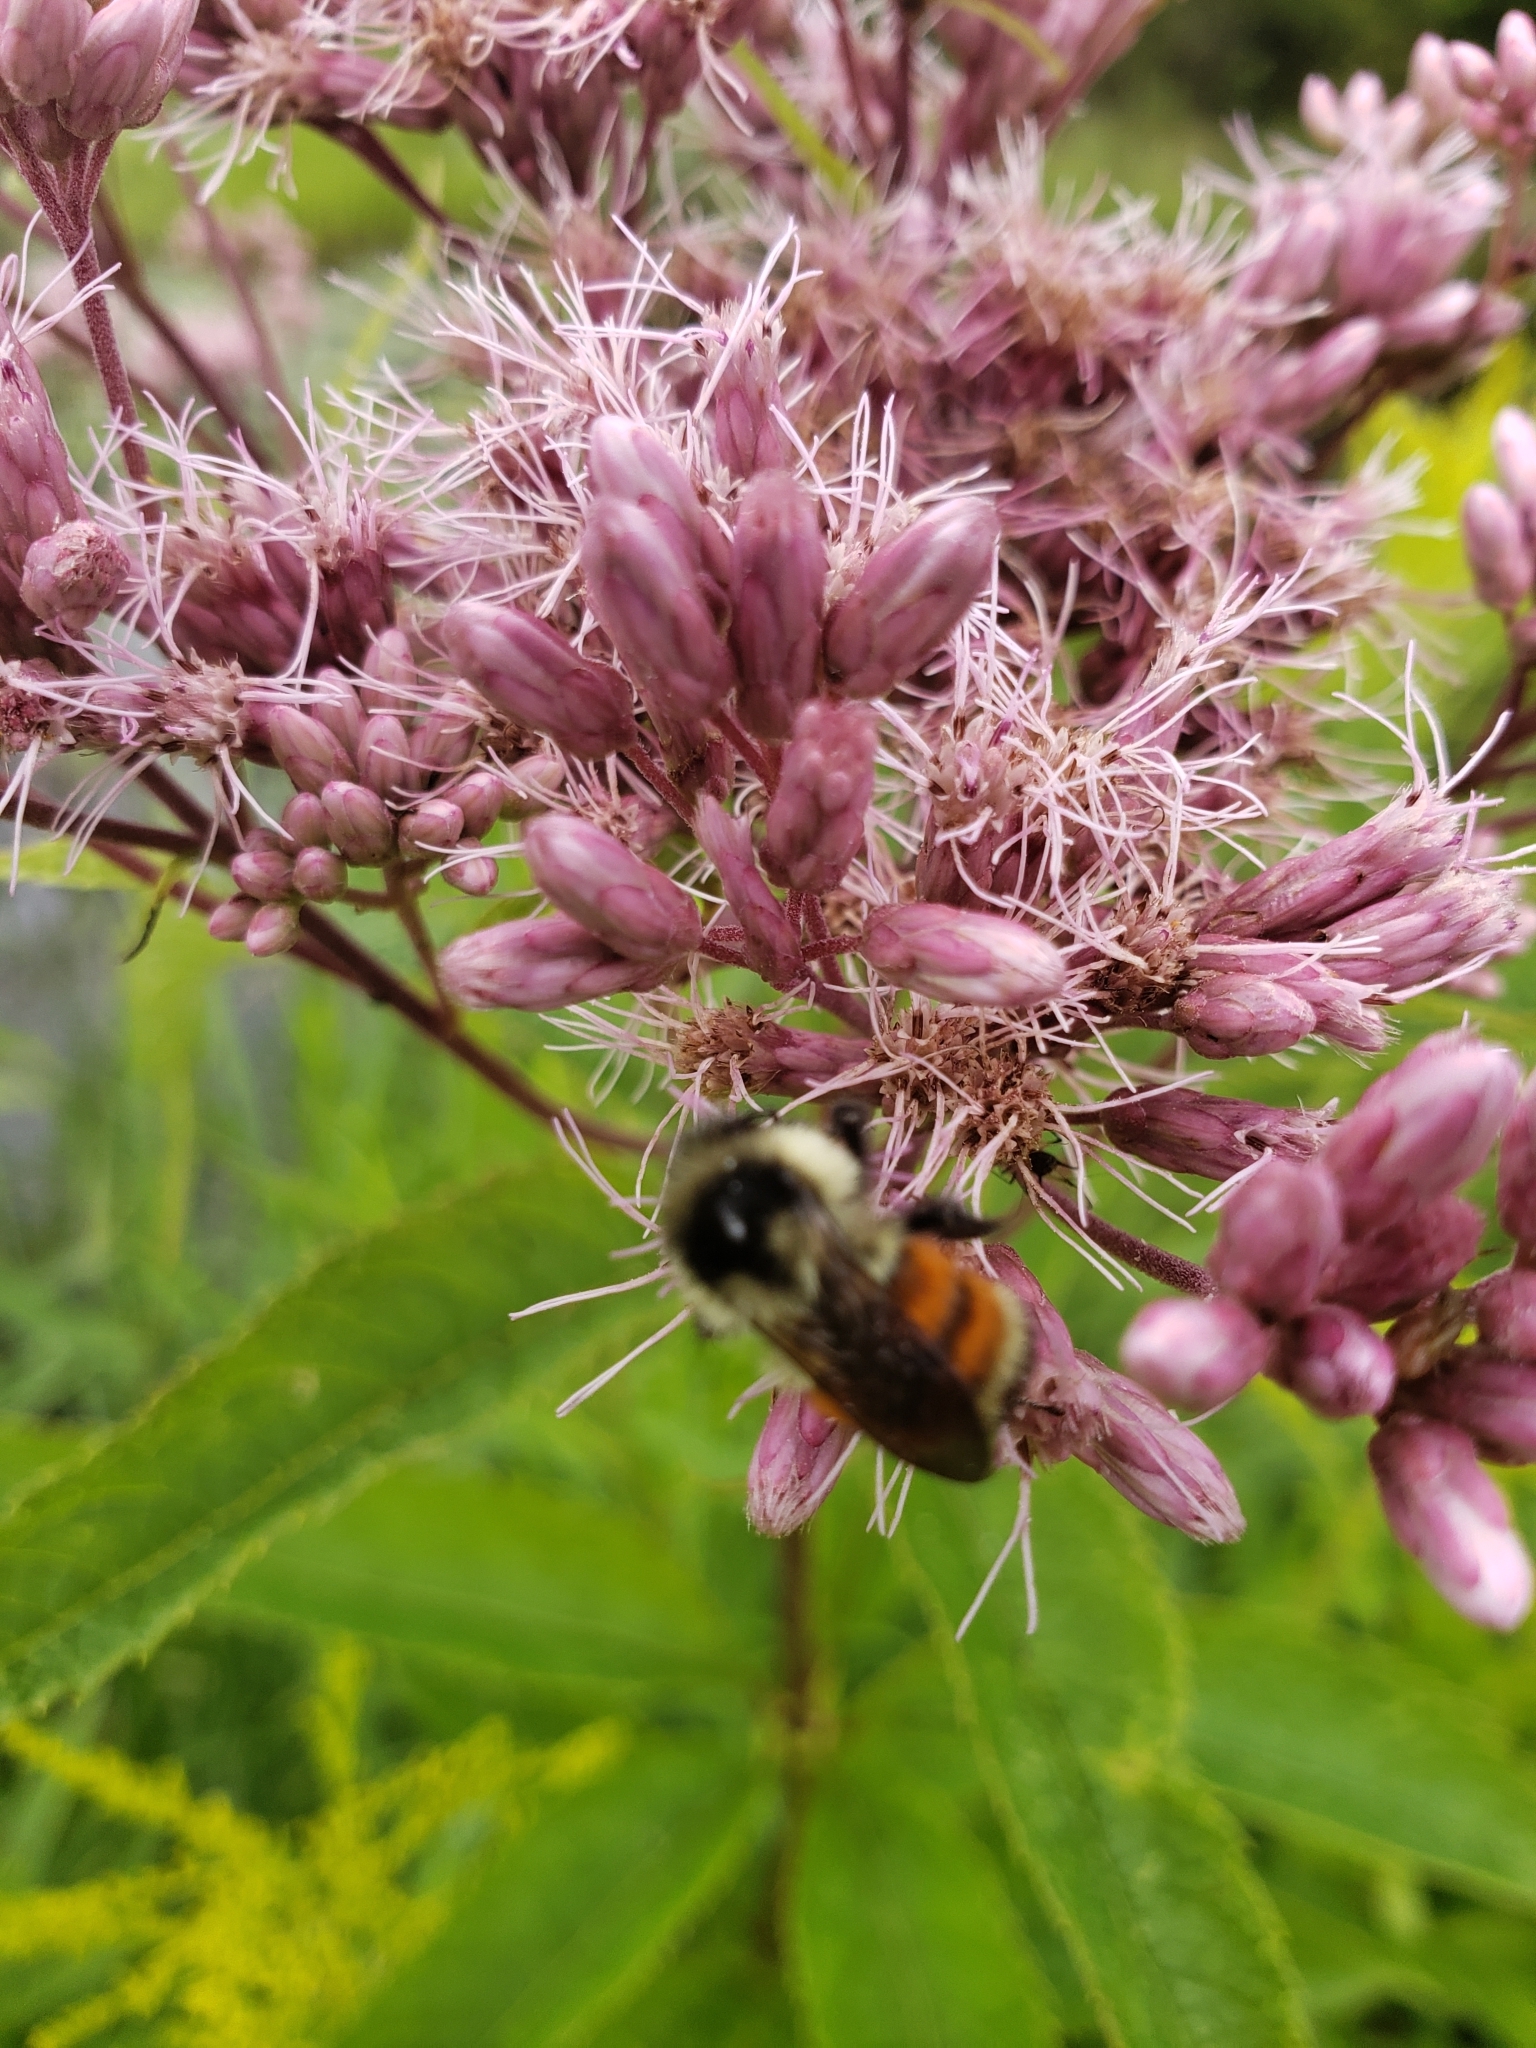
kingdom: Animalia
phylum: Arthropoda
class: Insecta
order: Hymenoptera
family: Apidae
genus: Bombus
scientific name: Bombus ternarius
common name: Tri-colored bumble bee
